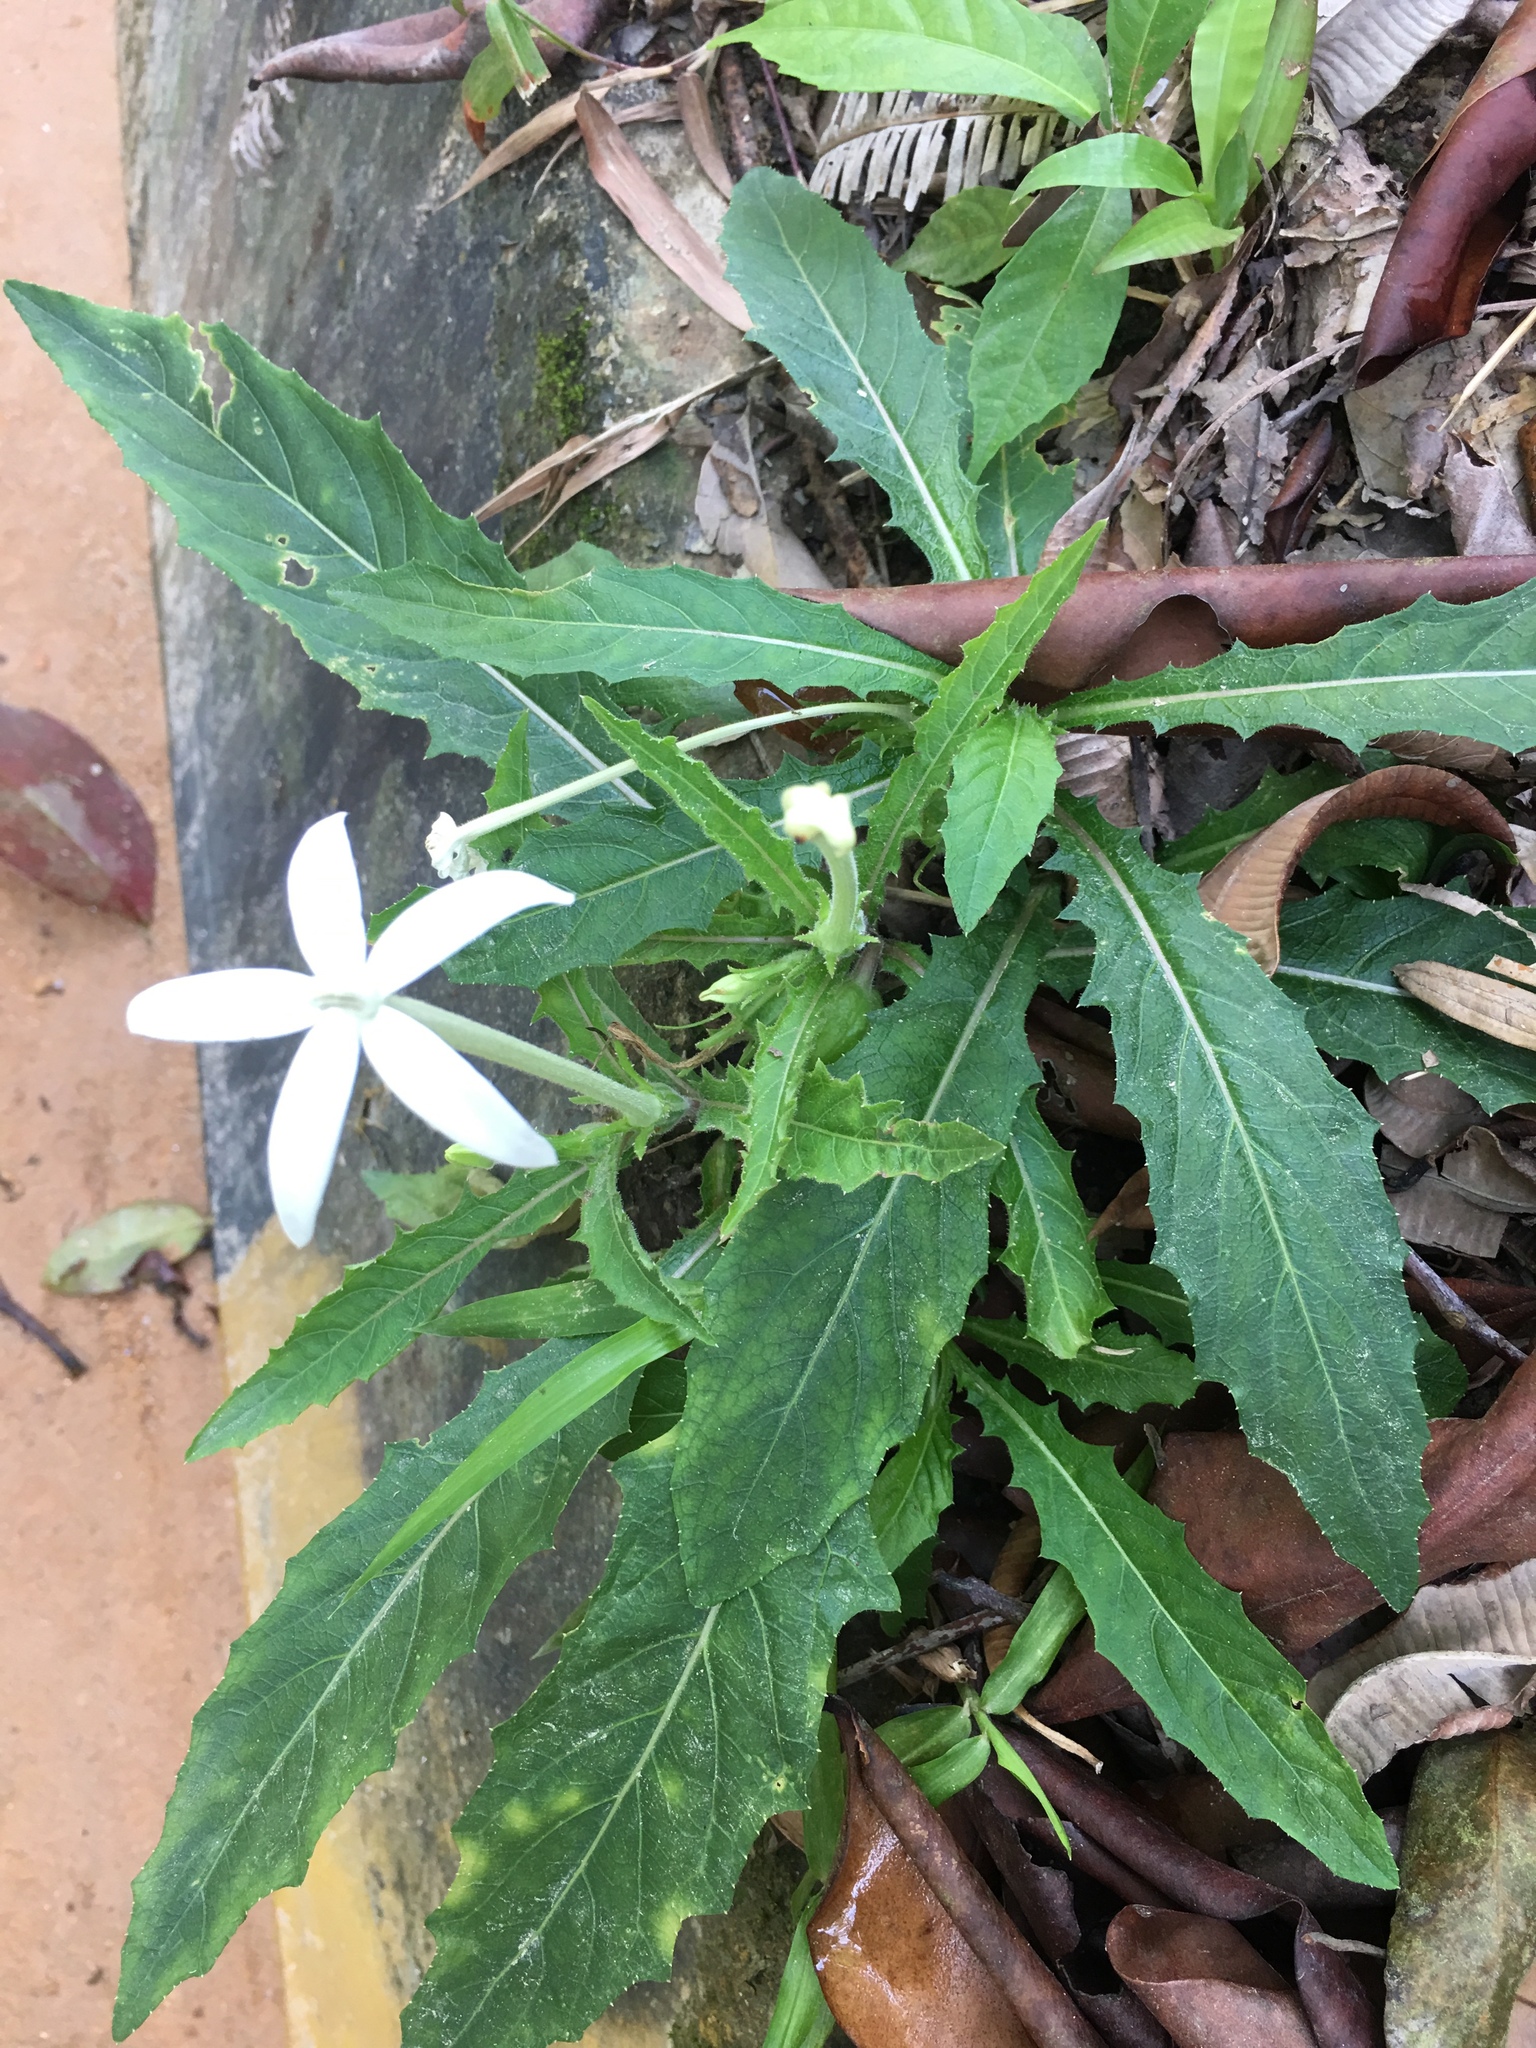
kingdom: Plantae
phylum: Tracheophyta
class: Magnoliopsida
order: Asterales
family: Campanulaceae
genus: Hippobroma
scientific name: Hippobroma longiflora
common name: Madamfate
